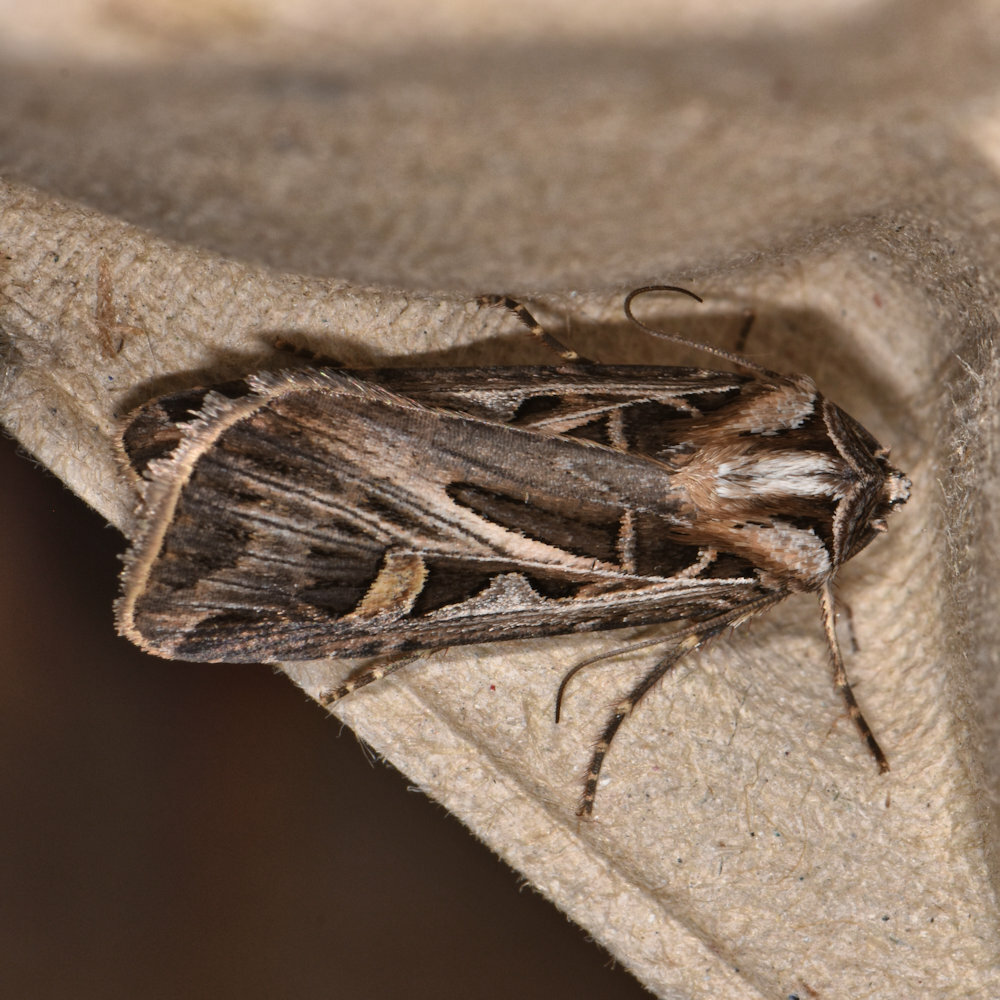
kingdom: Animalia
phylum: Arthropoda
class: Insecta
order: Lepidoptera
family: Noctuidae
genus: Feltia
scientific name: Feltia jaculifera
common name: Dingy cutworm moth
